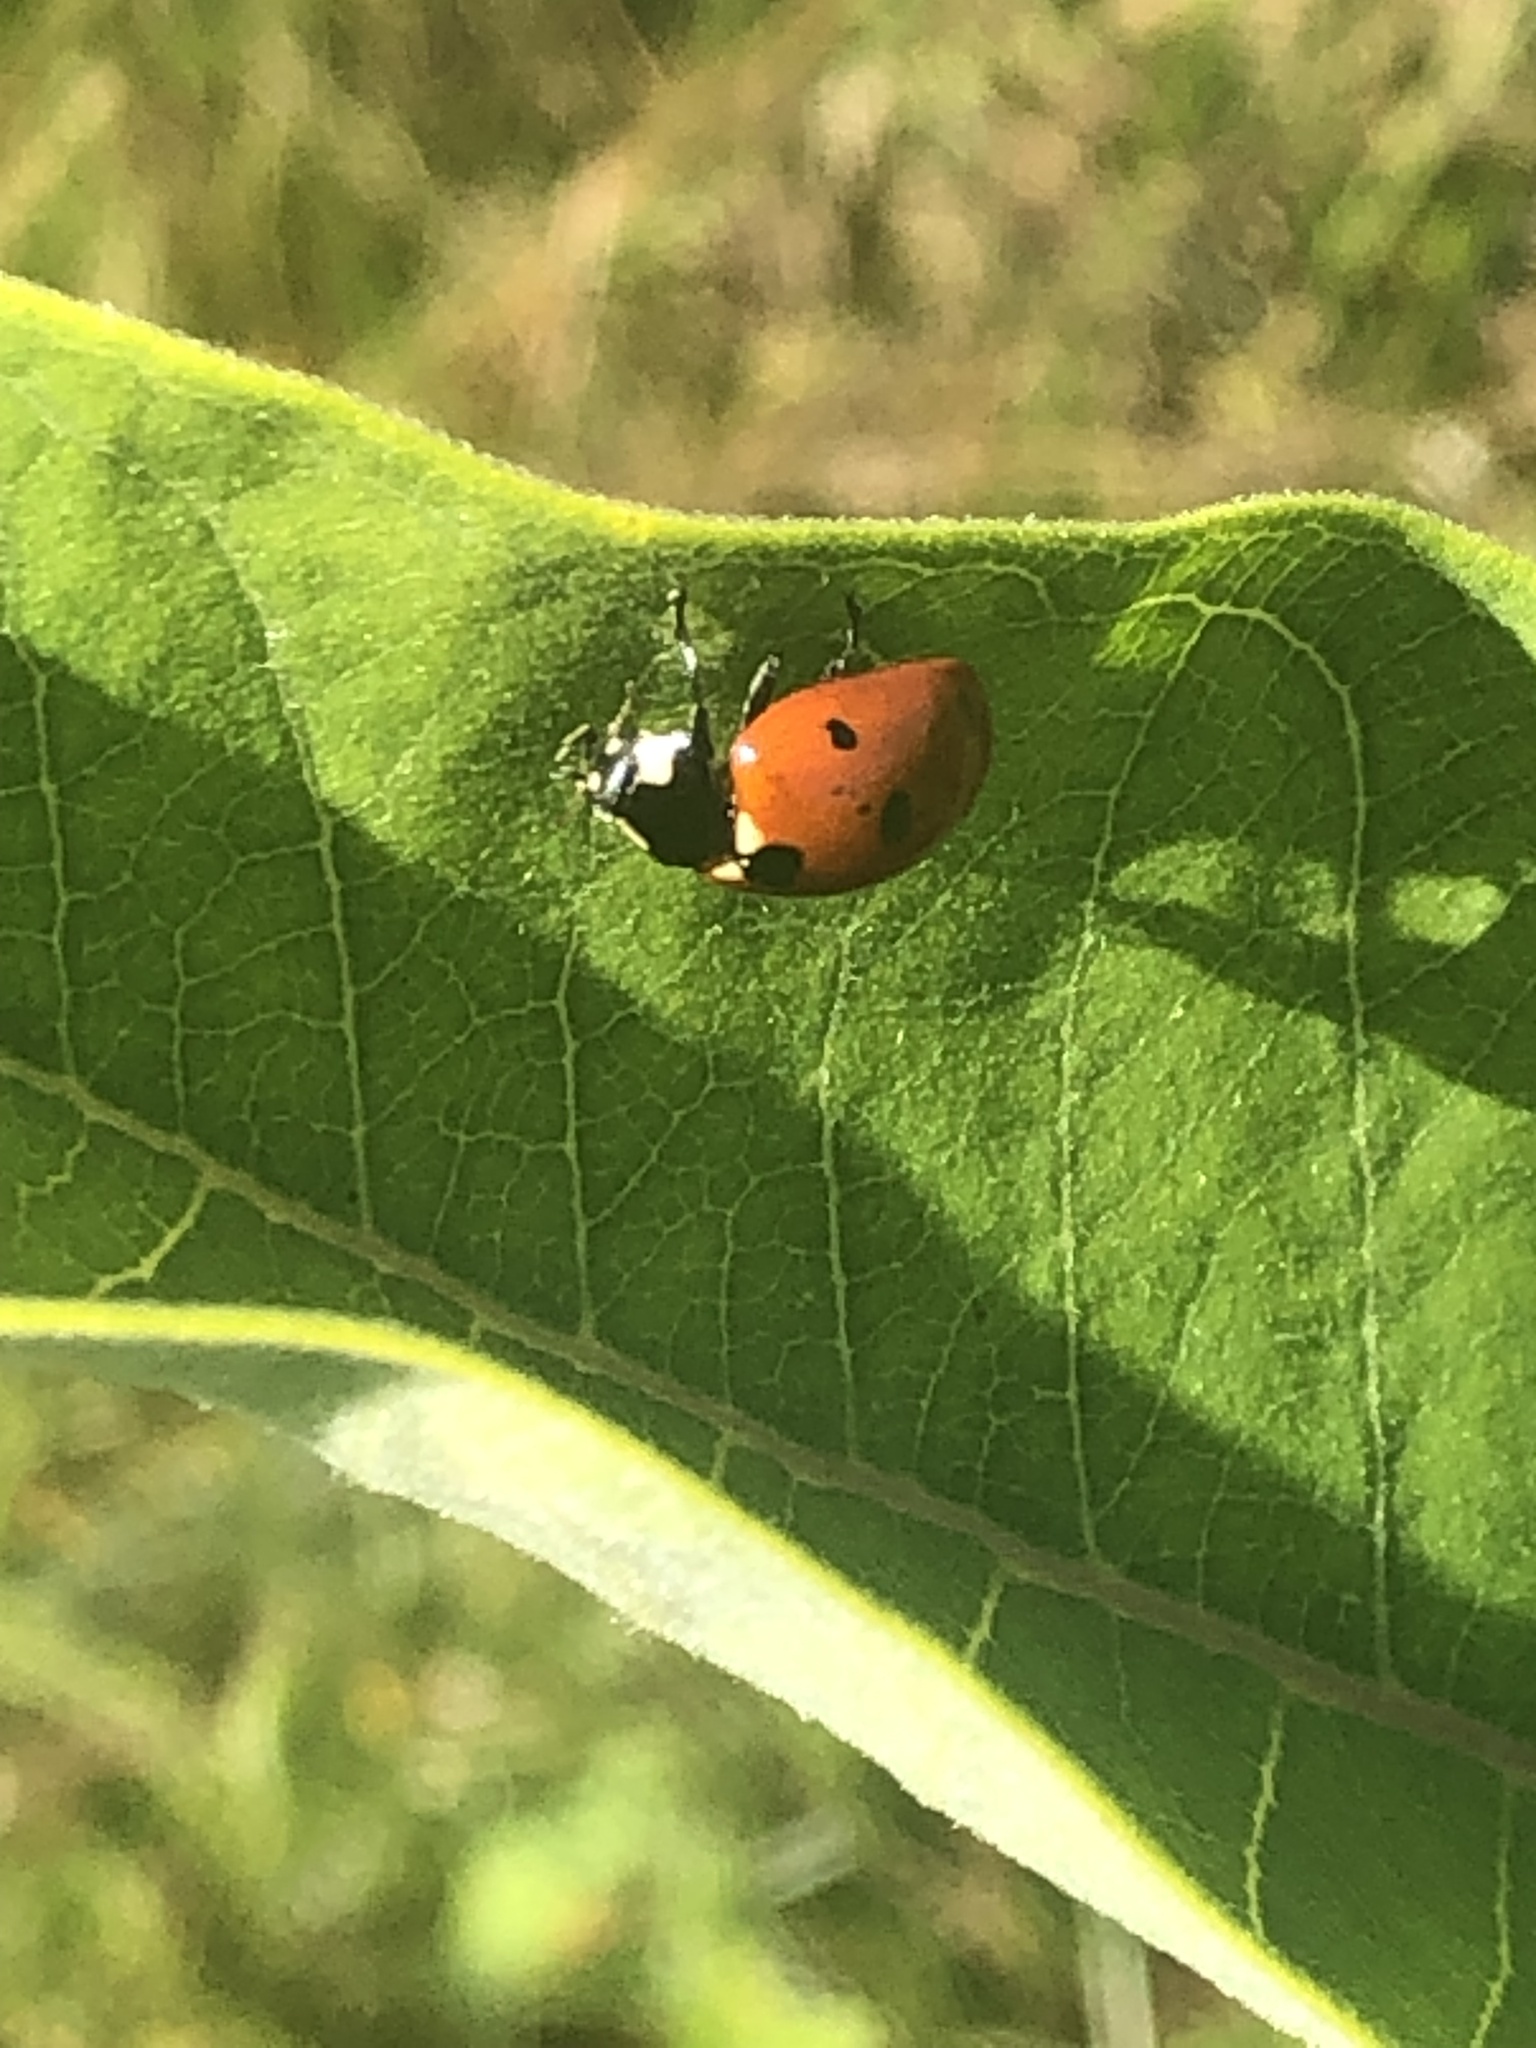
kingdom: Animalia
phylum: Arthropoda
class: Insecta
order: Coleoptera
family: Coccinellidae
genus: Coccinella
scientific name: Coccinella septempunctata
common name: Sevenspotted lady beetle
